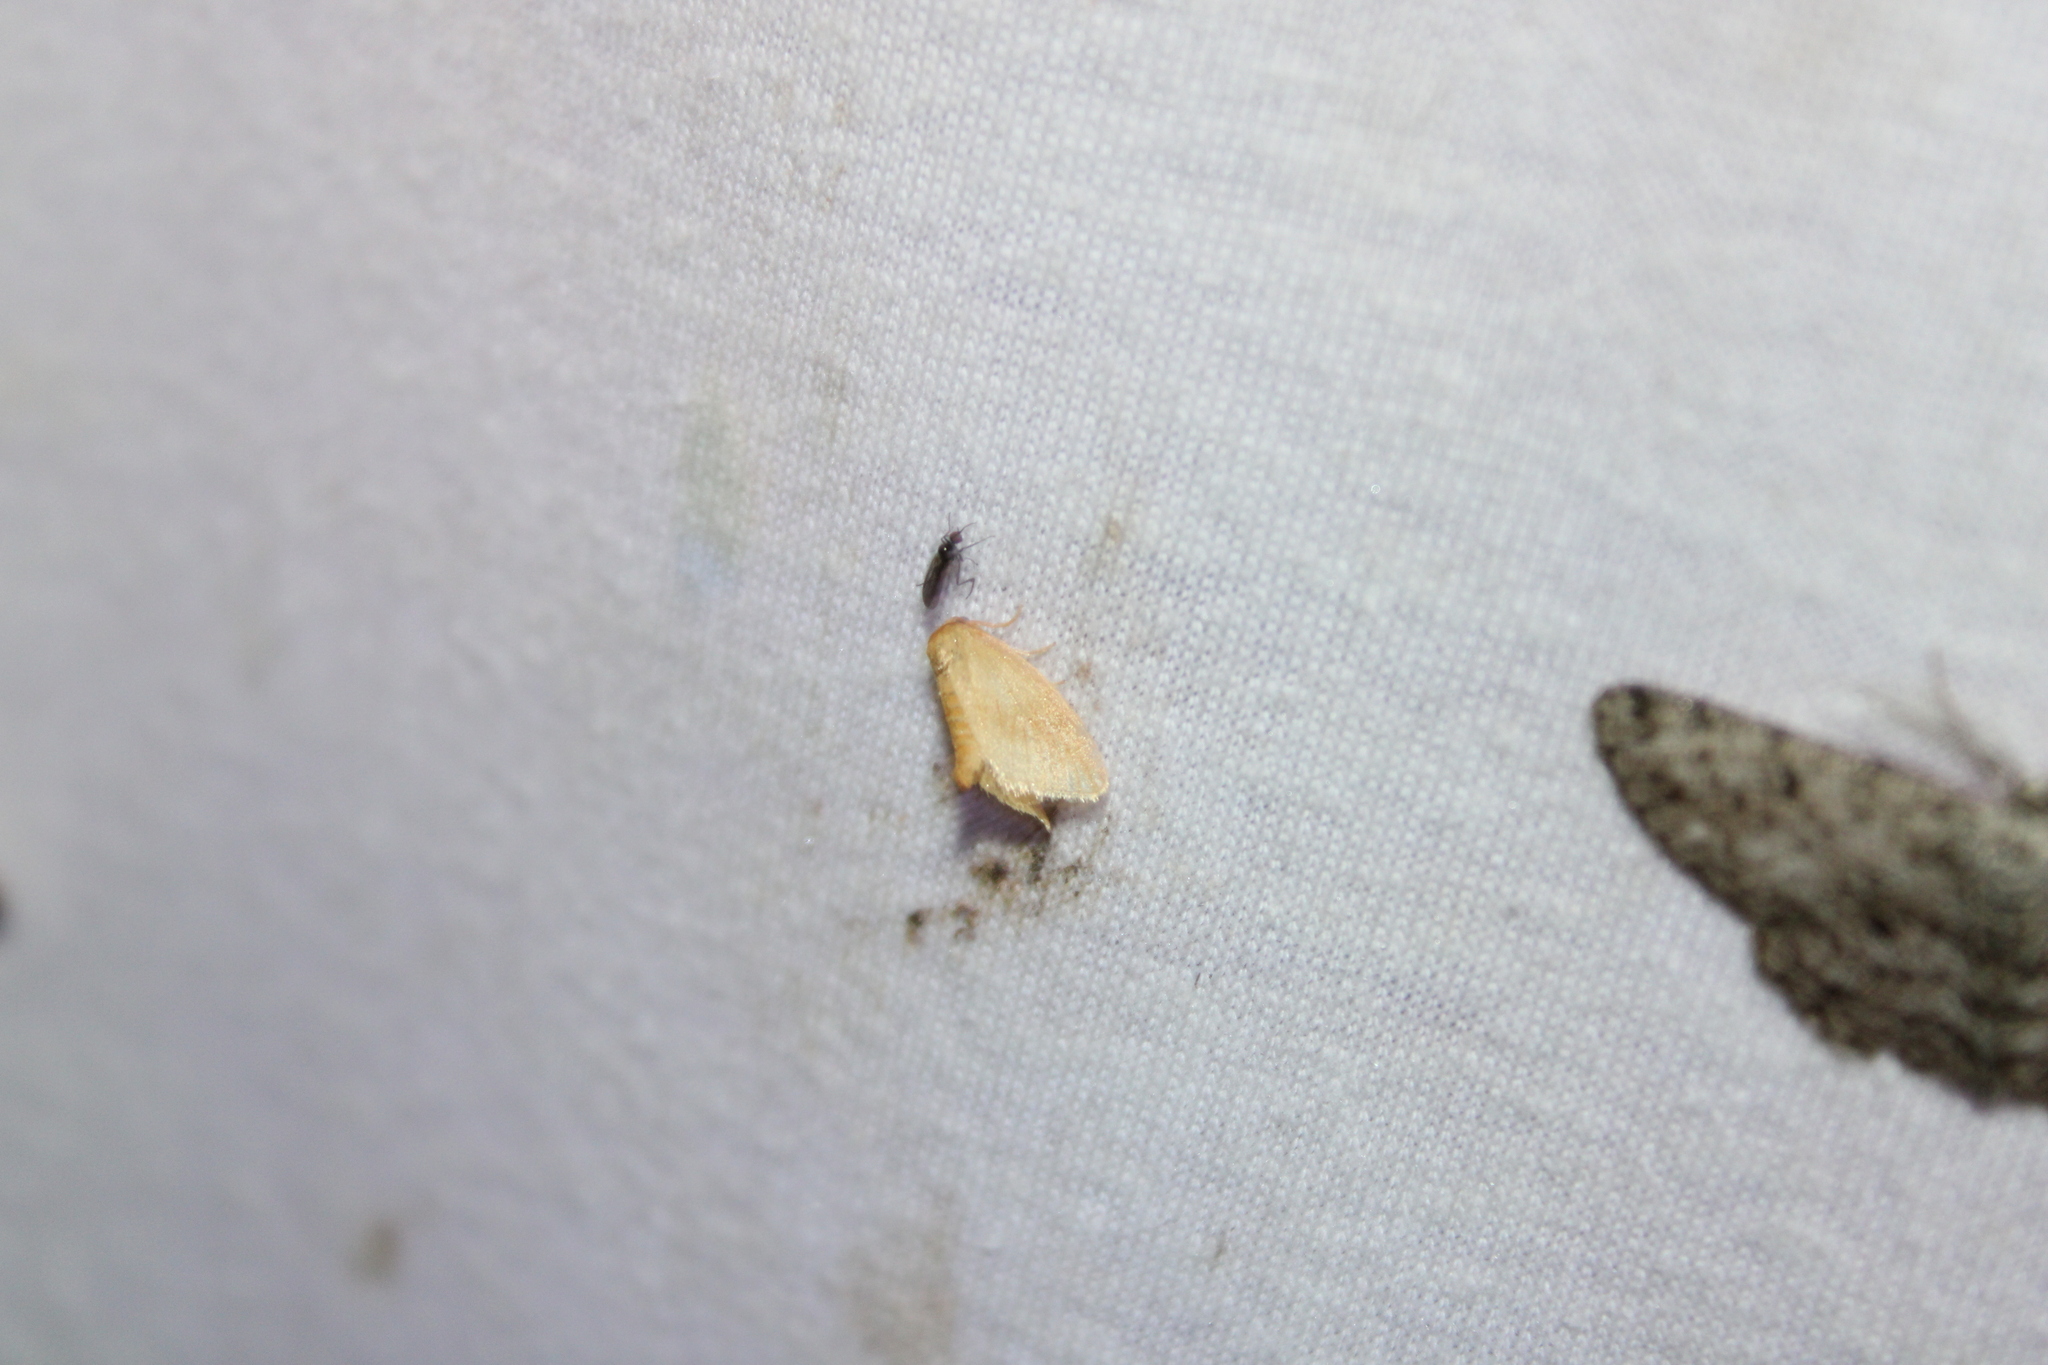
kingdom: Animalia
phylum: Arthropoda
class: Insecta
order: Lepidoptera
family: Limacodidae
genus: Tortricidia
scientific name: Tortricidia pallida
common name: Red-crossed button slug moth
